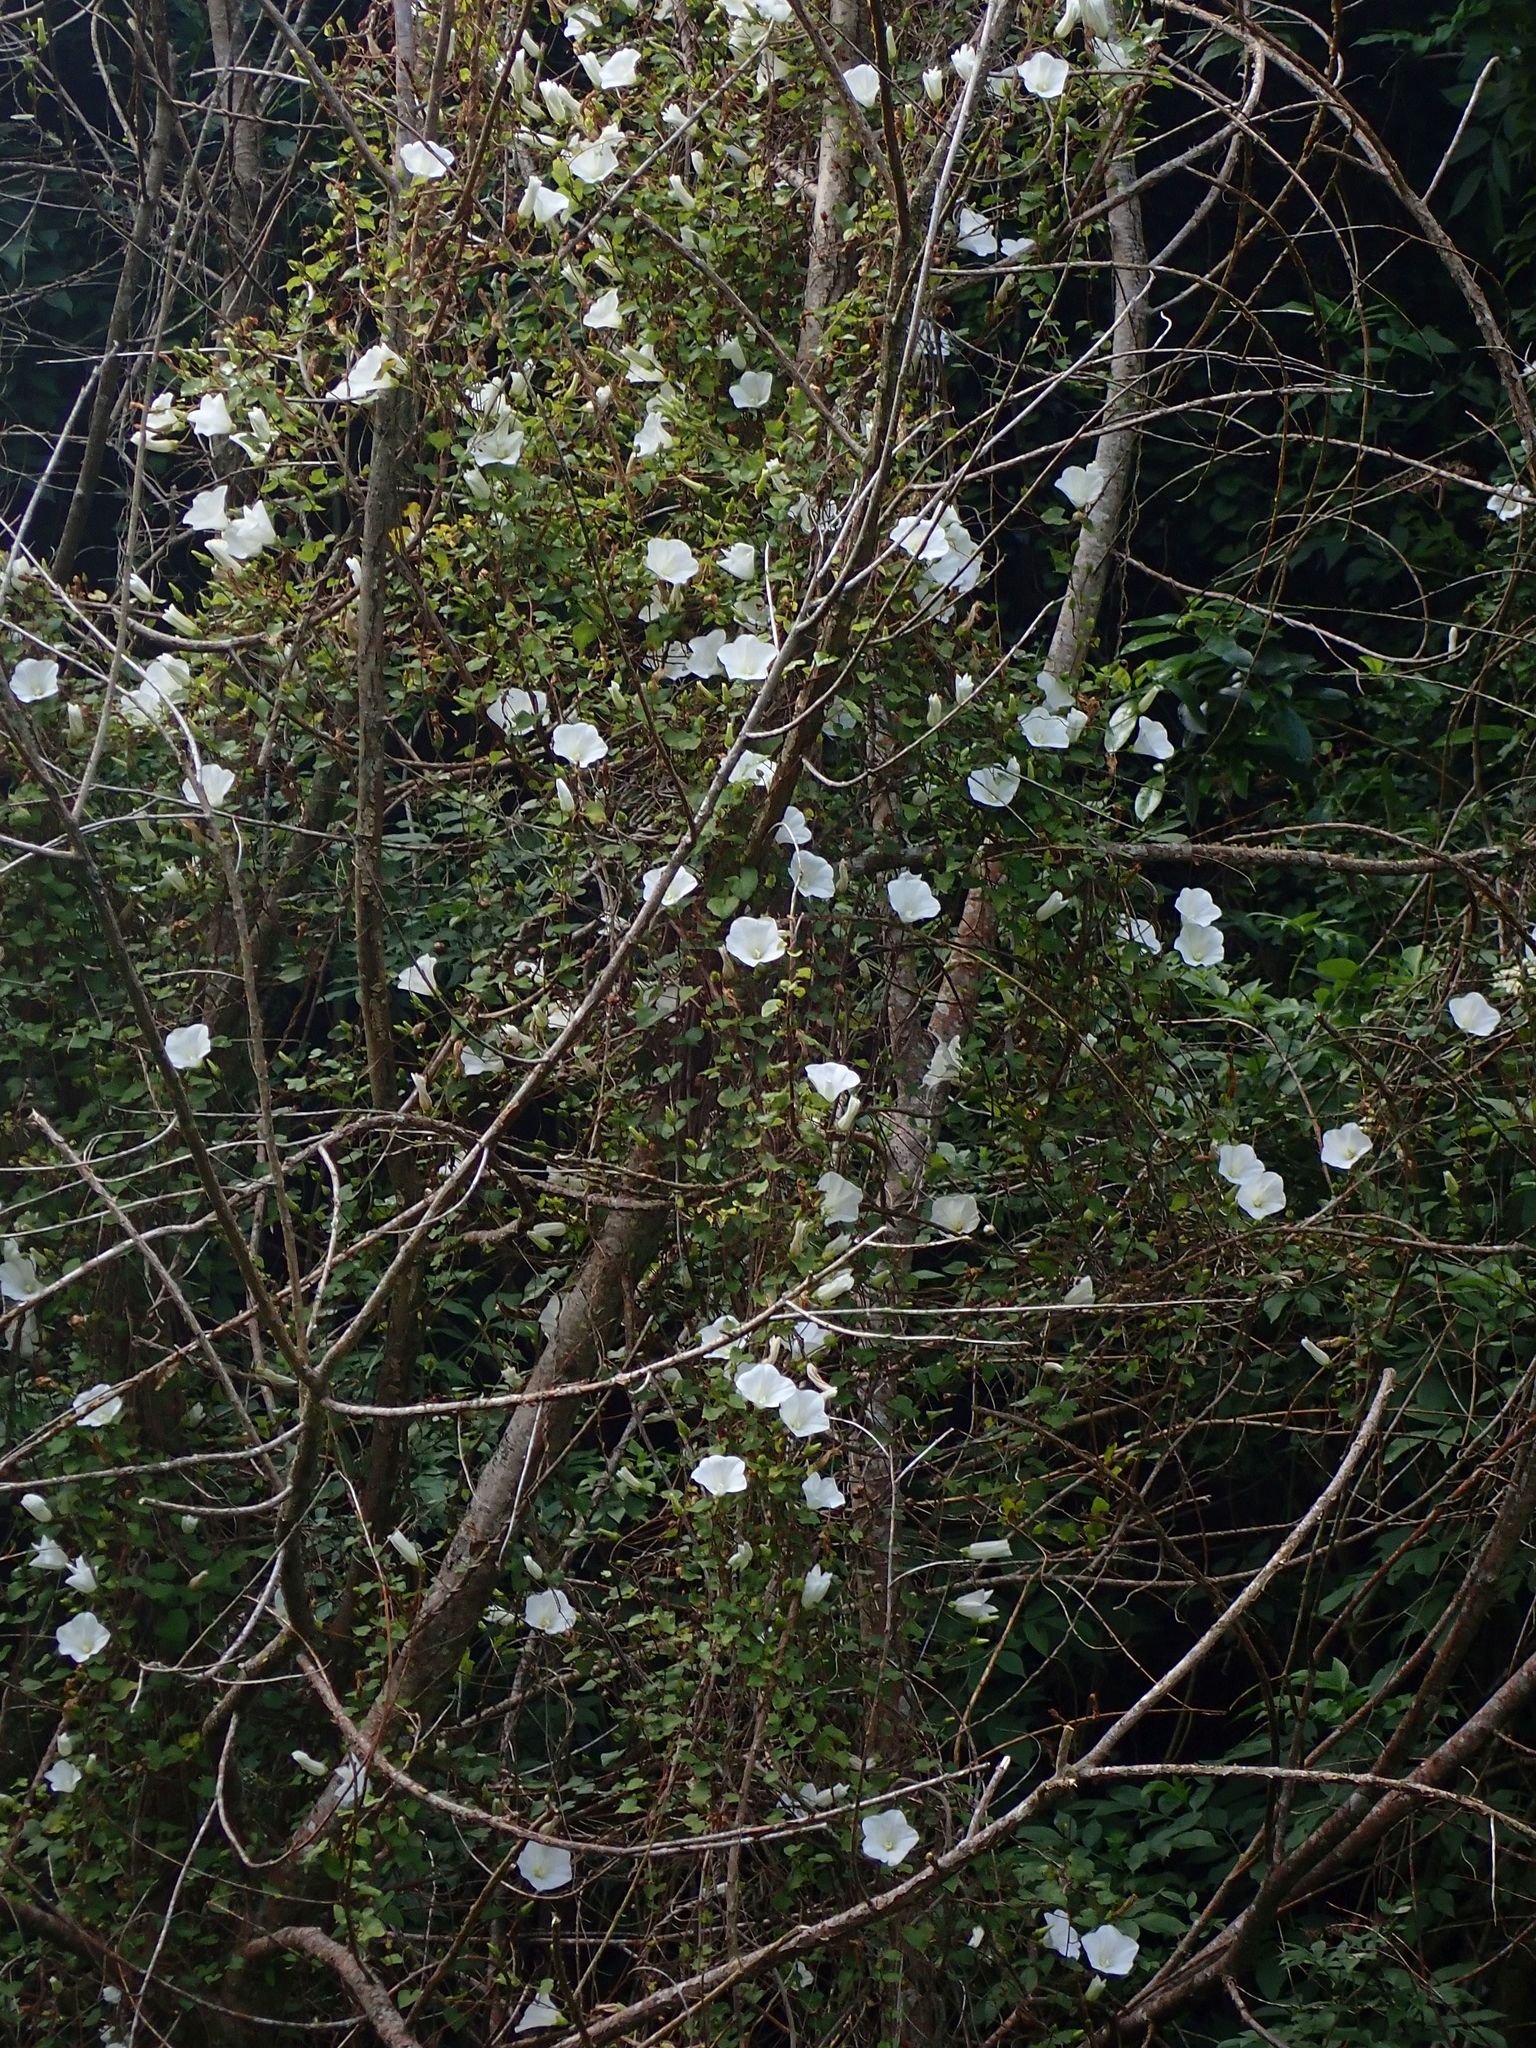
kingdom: Plantae
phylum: Tracheophyta
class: Magnoliopsida
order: Solanales
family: Convolvulaceae
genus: Calystegia
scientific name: Calystegia tuguriorum
